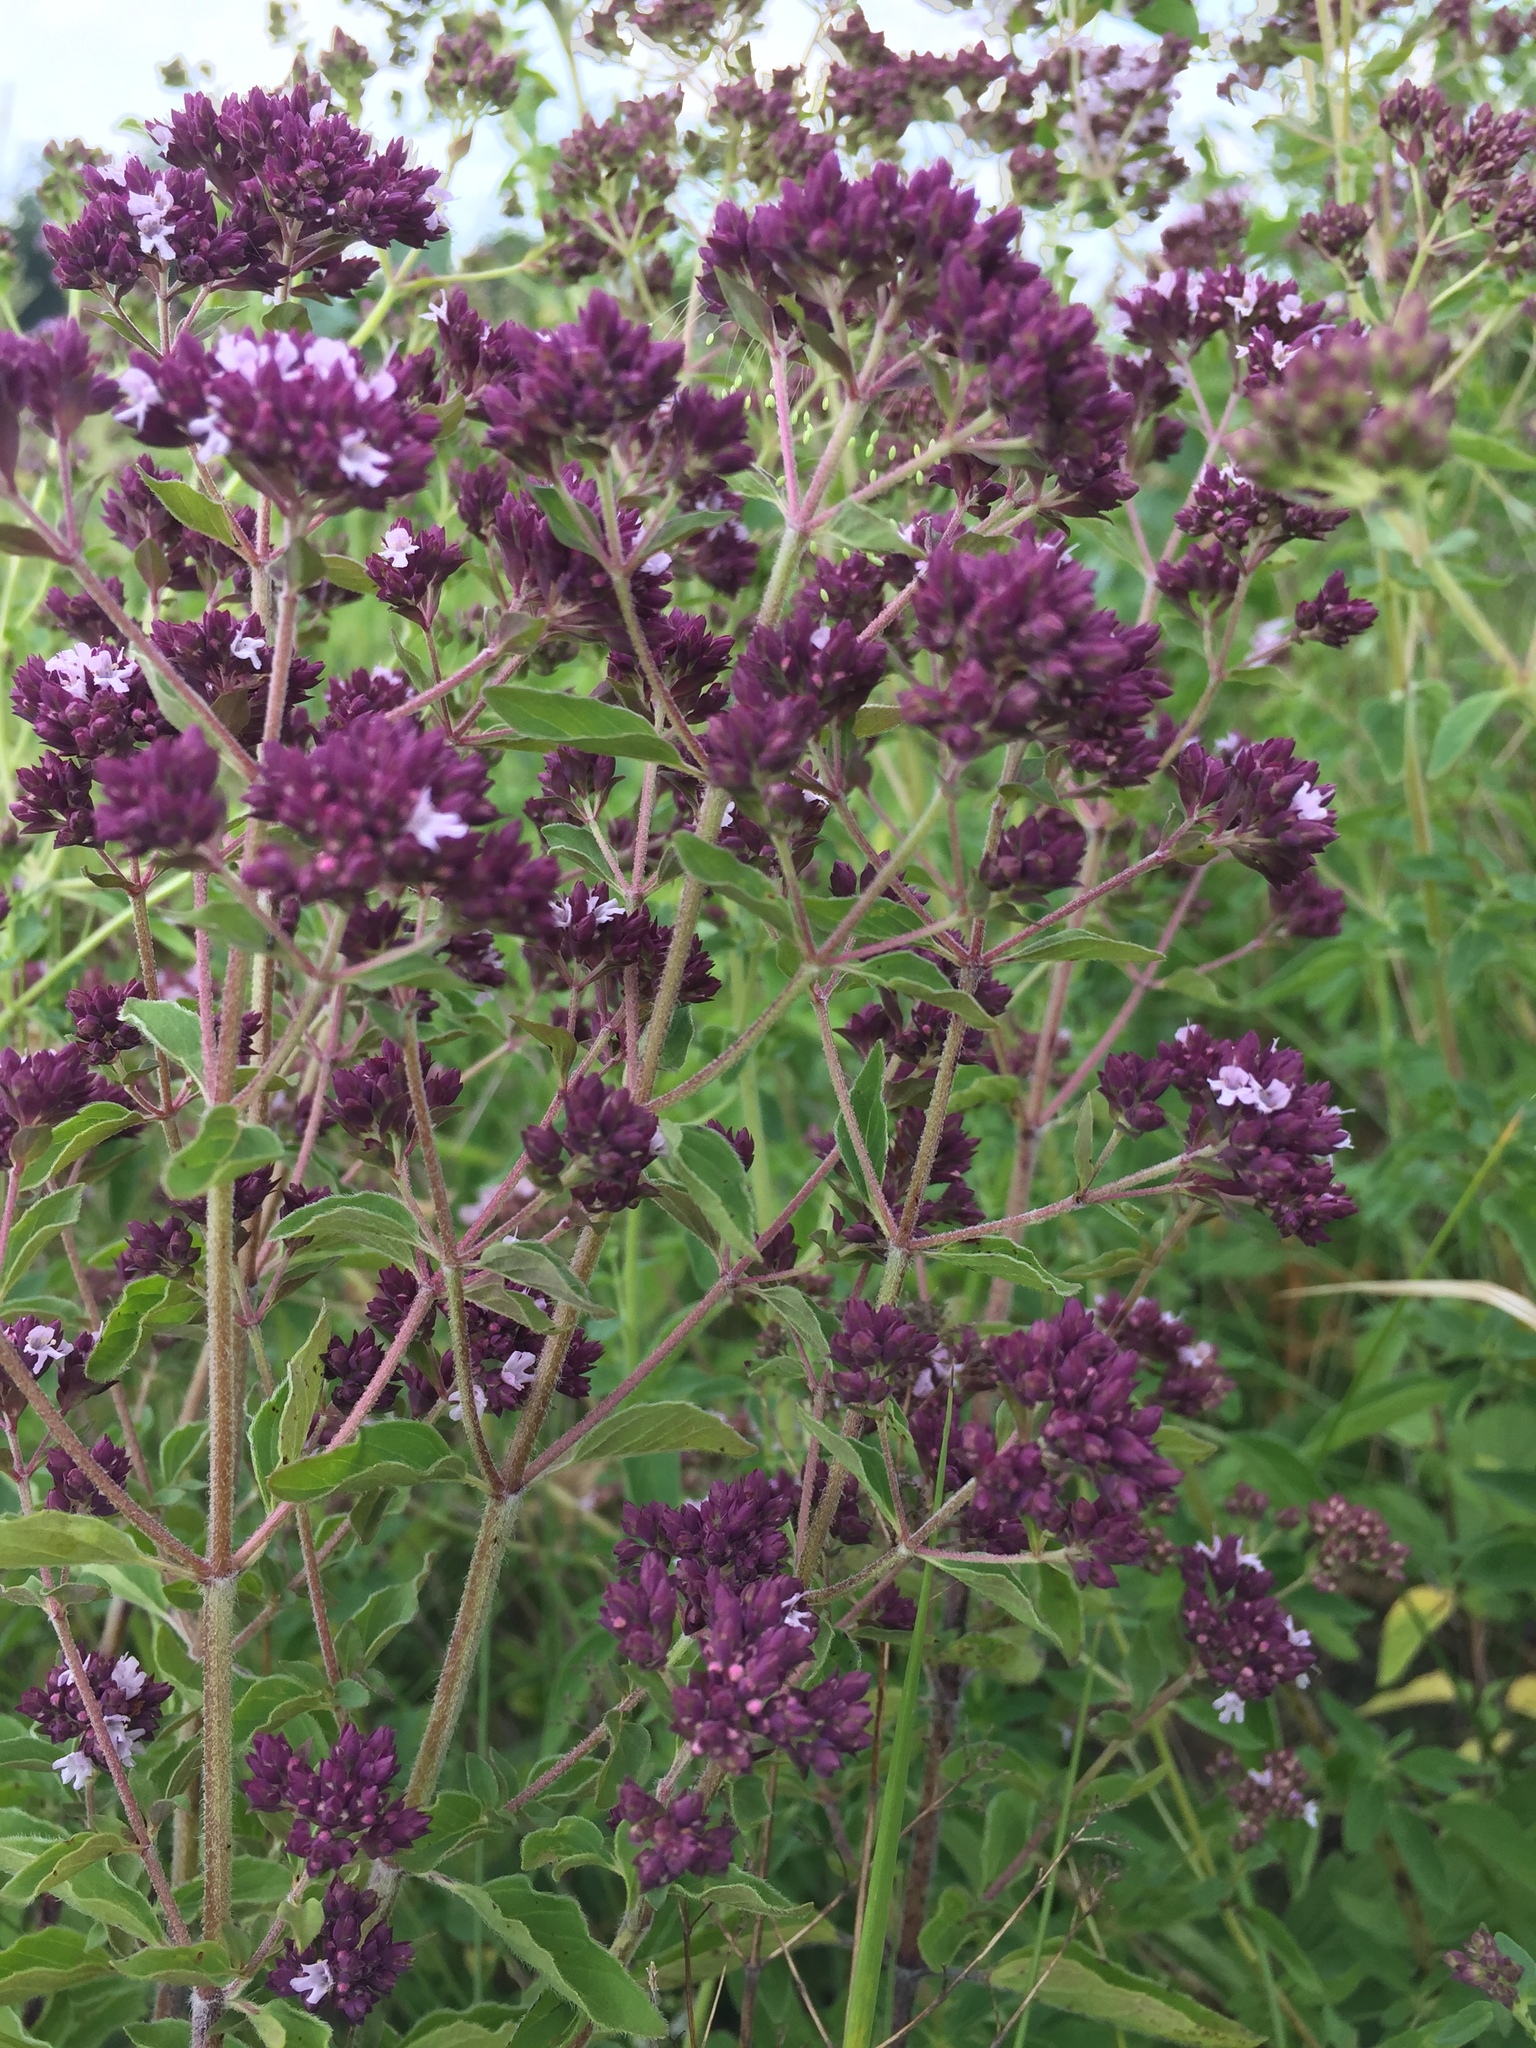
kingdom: Plantae
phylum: Tracheophyta
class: Magnoliopsida
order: Lamiales
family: Lamiaceae
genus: Origanum
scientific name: Origanum vulgare
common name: Wild marjoram
